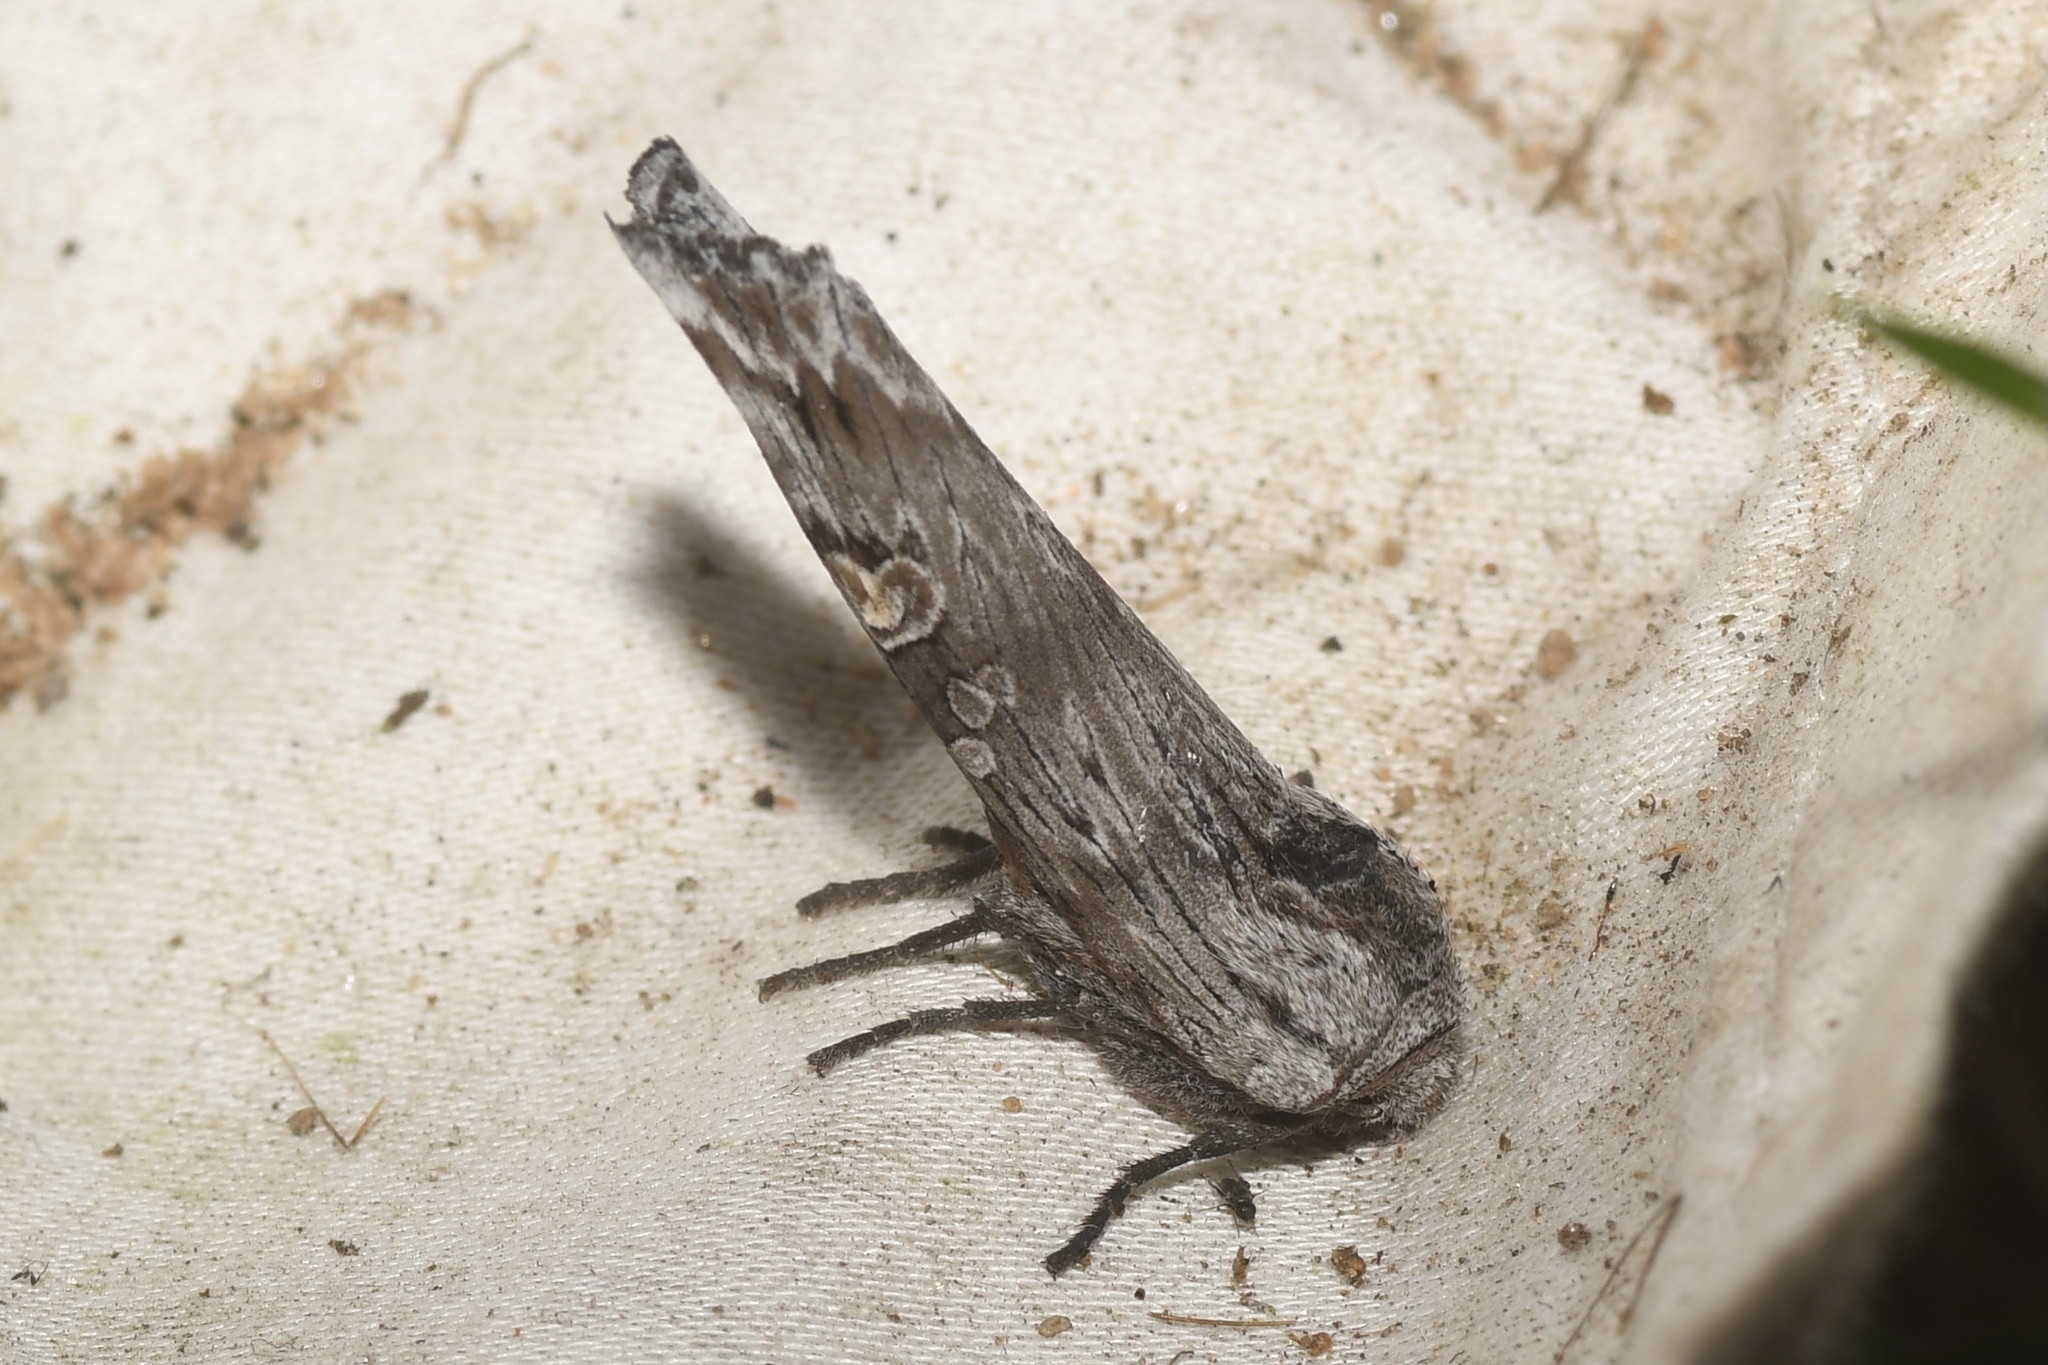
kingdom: Animalia
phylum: Arthropoda
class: Insecta
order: Lepidoptera
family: Noctuidae
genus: Xylena
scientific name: Xylena germana
